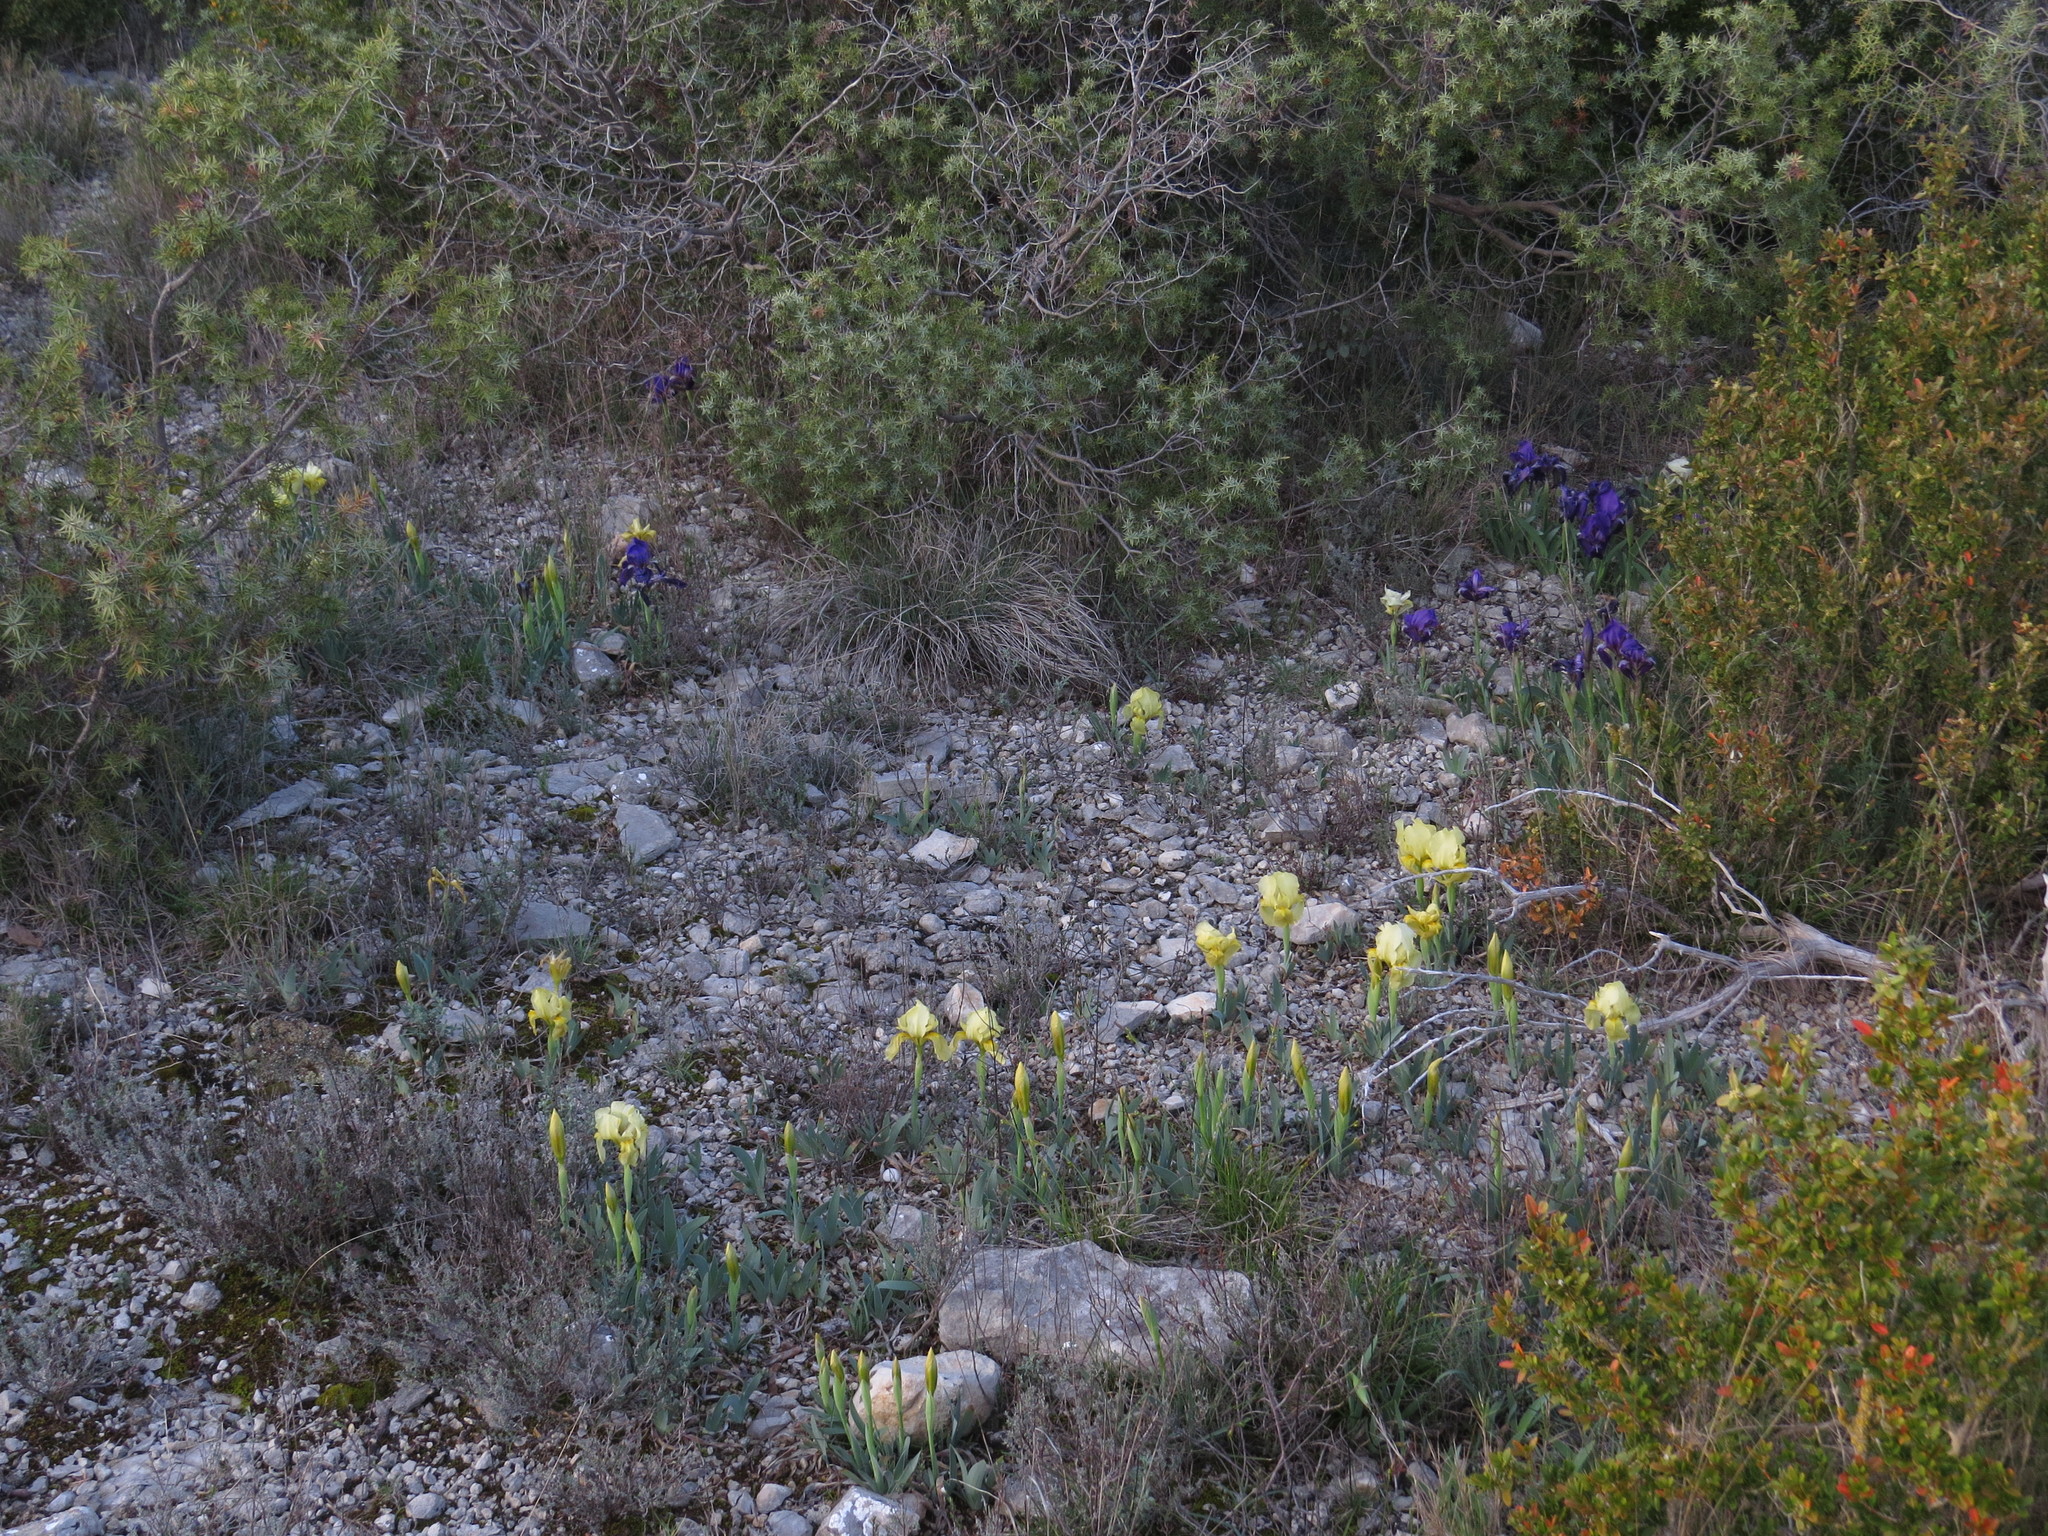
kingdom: Plantae
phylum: Tracheophyta
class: Liliopsida
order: Asparagales
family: Iridaceae
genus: Iris
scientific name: Iris lutescens
